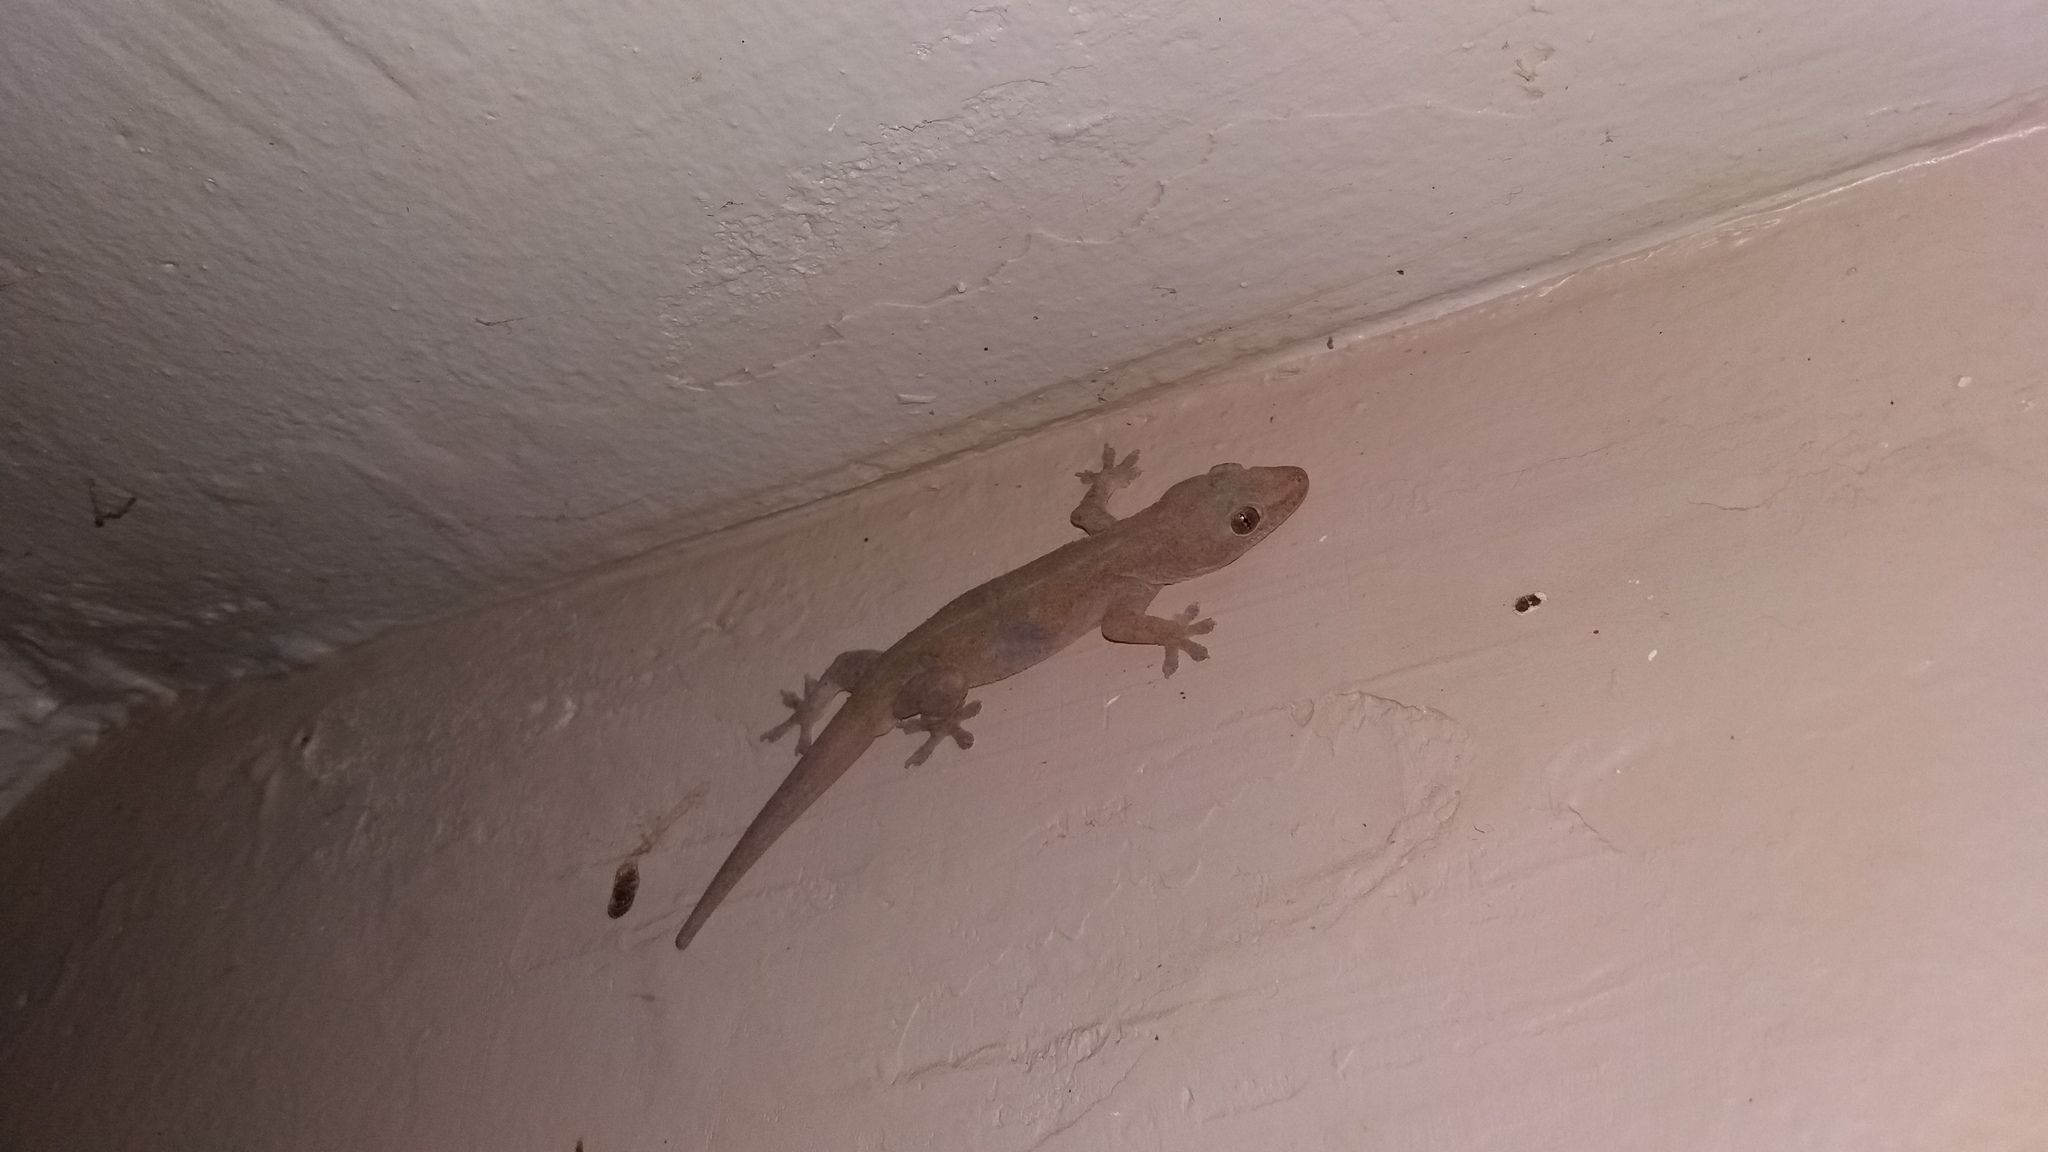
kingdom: Animalia
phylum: Chordata
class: Squamata
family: Gekkonidae
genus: Hemidactylus
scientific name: Hemidactylus frenatus
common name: Common house gecko
